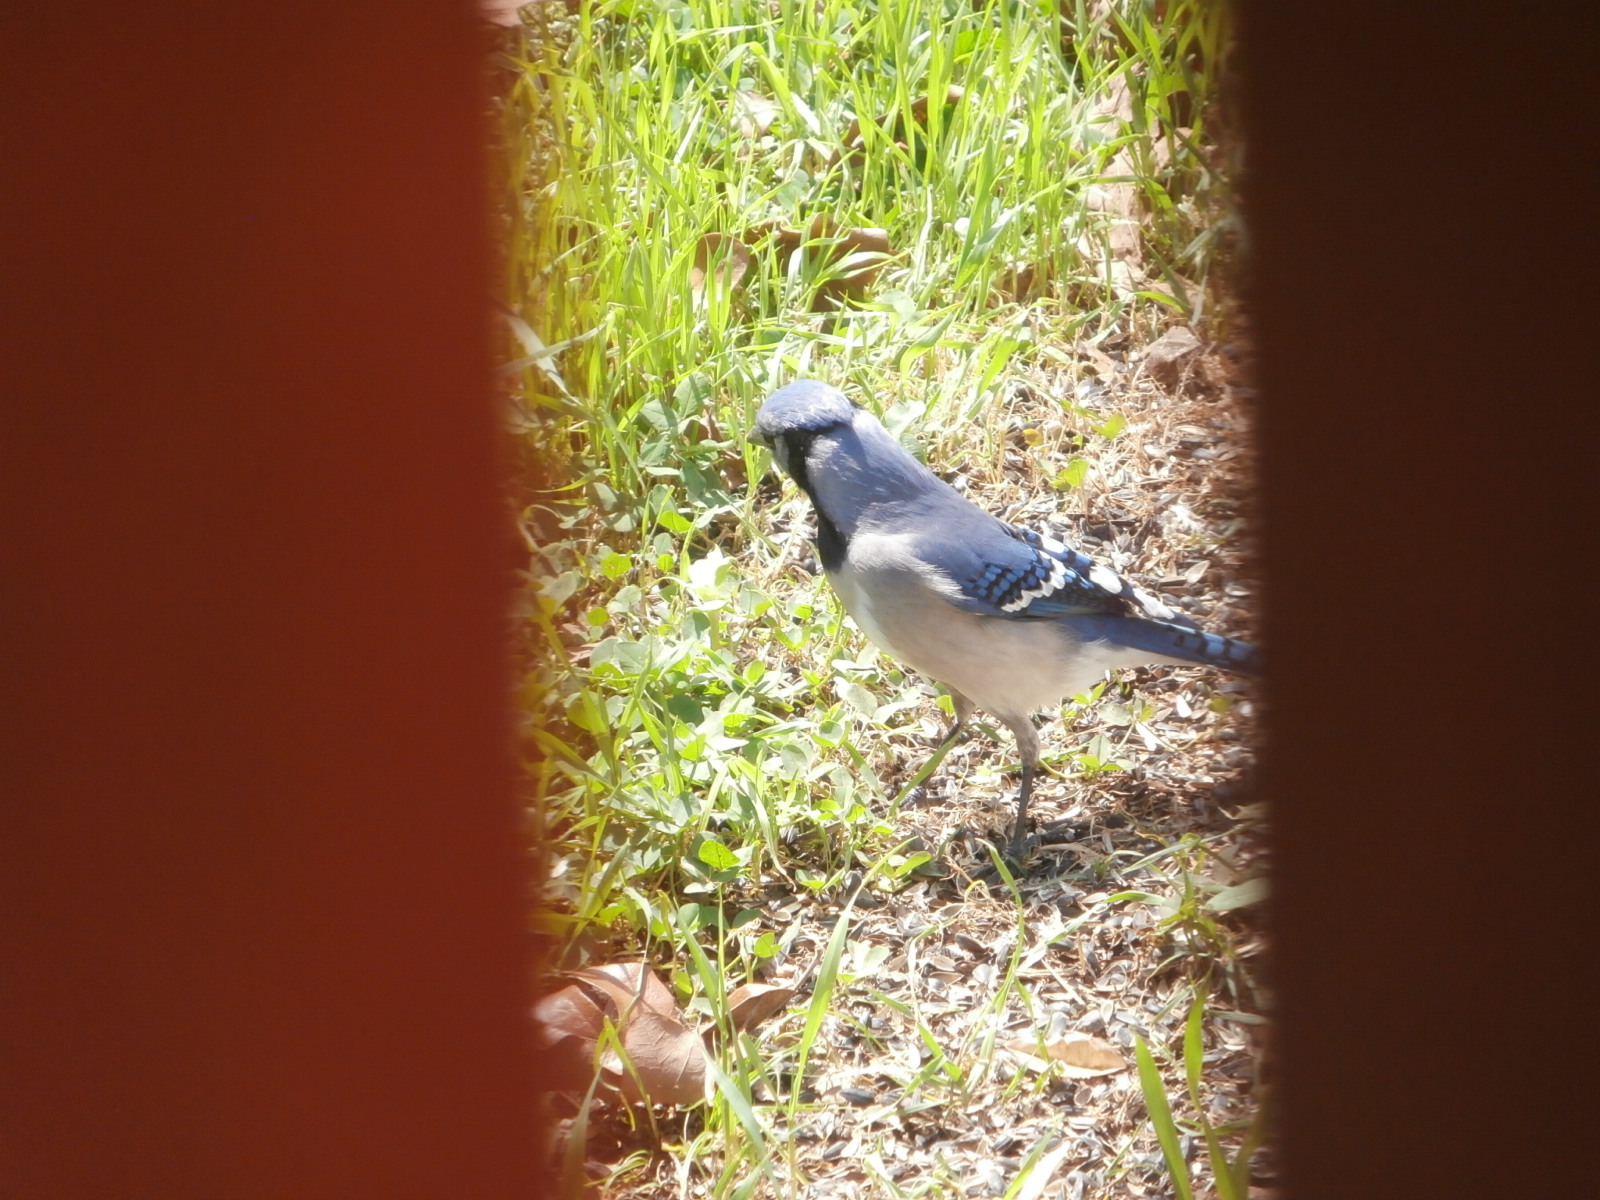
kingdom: Animalia
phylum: Chordata
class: Aves
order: Passeriformes
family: Corvidae
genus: Cyanocitta
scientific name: Cyanocitta cristata
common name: Blue jay
